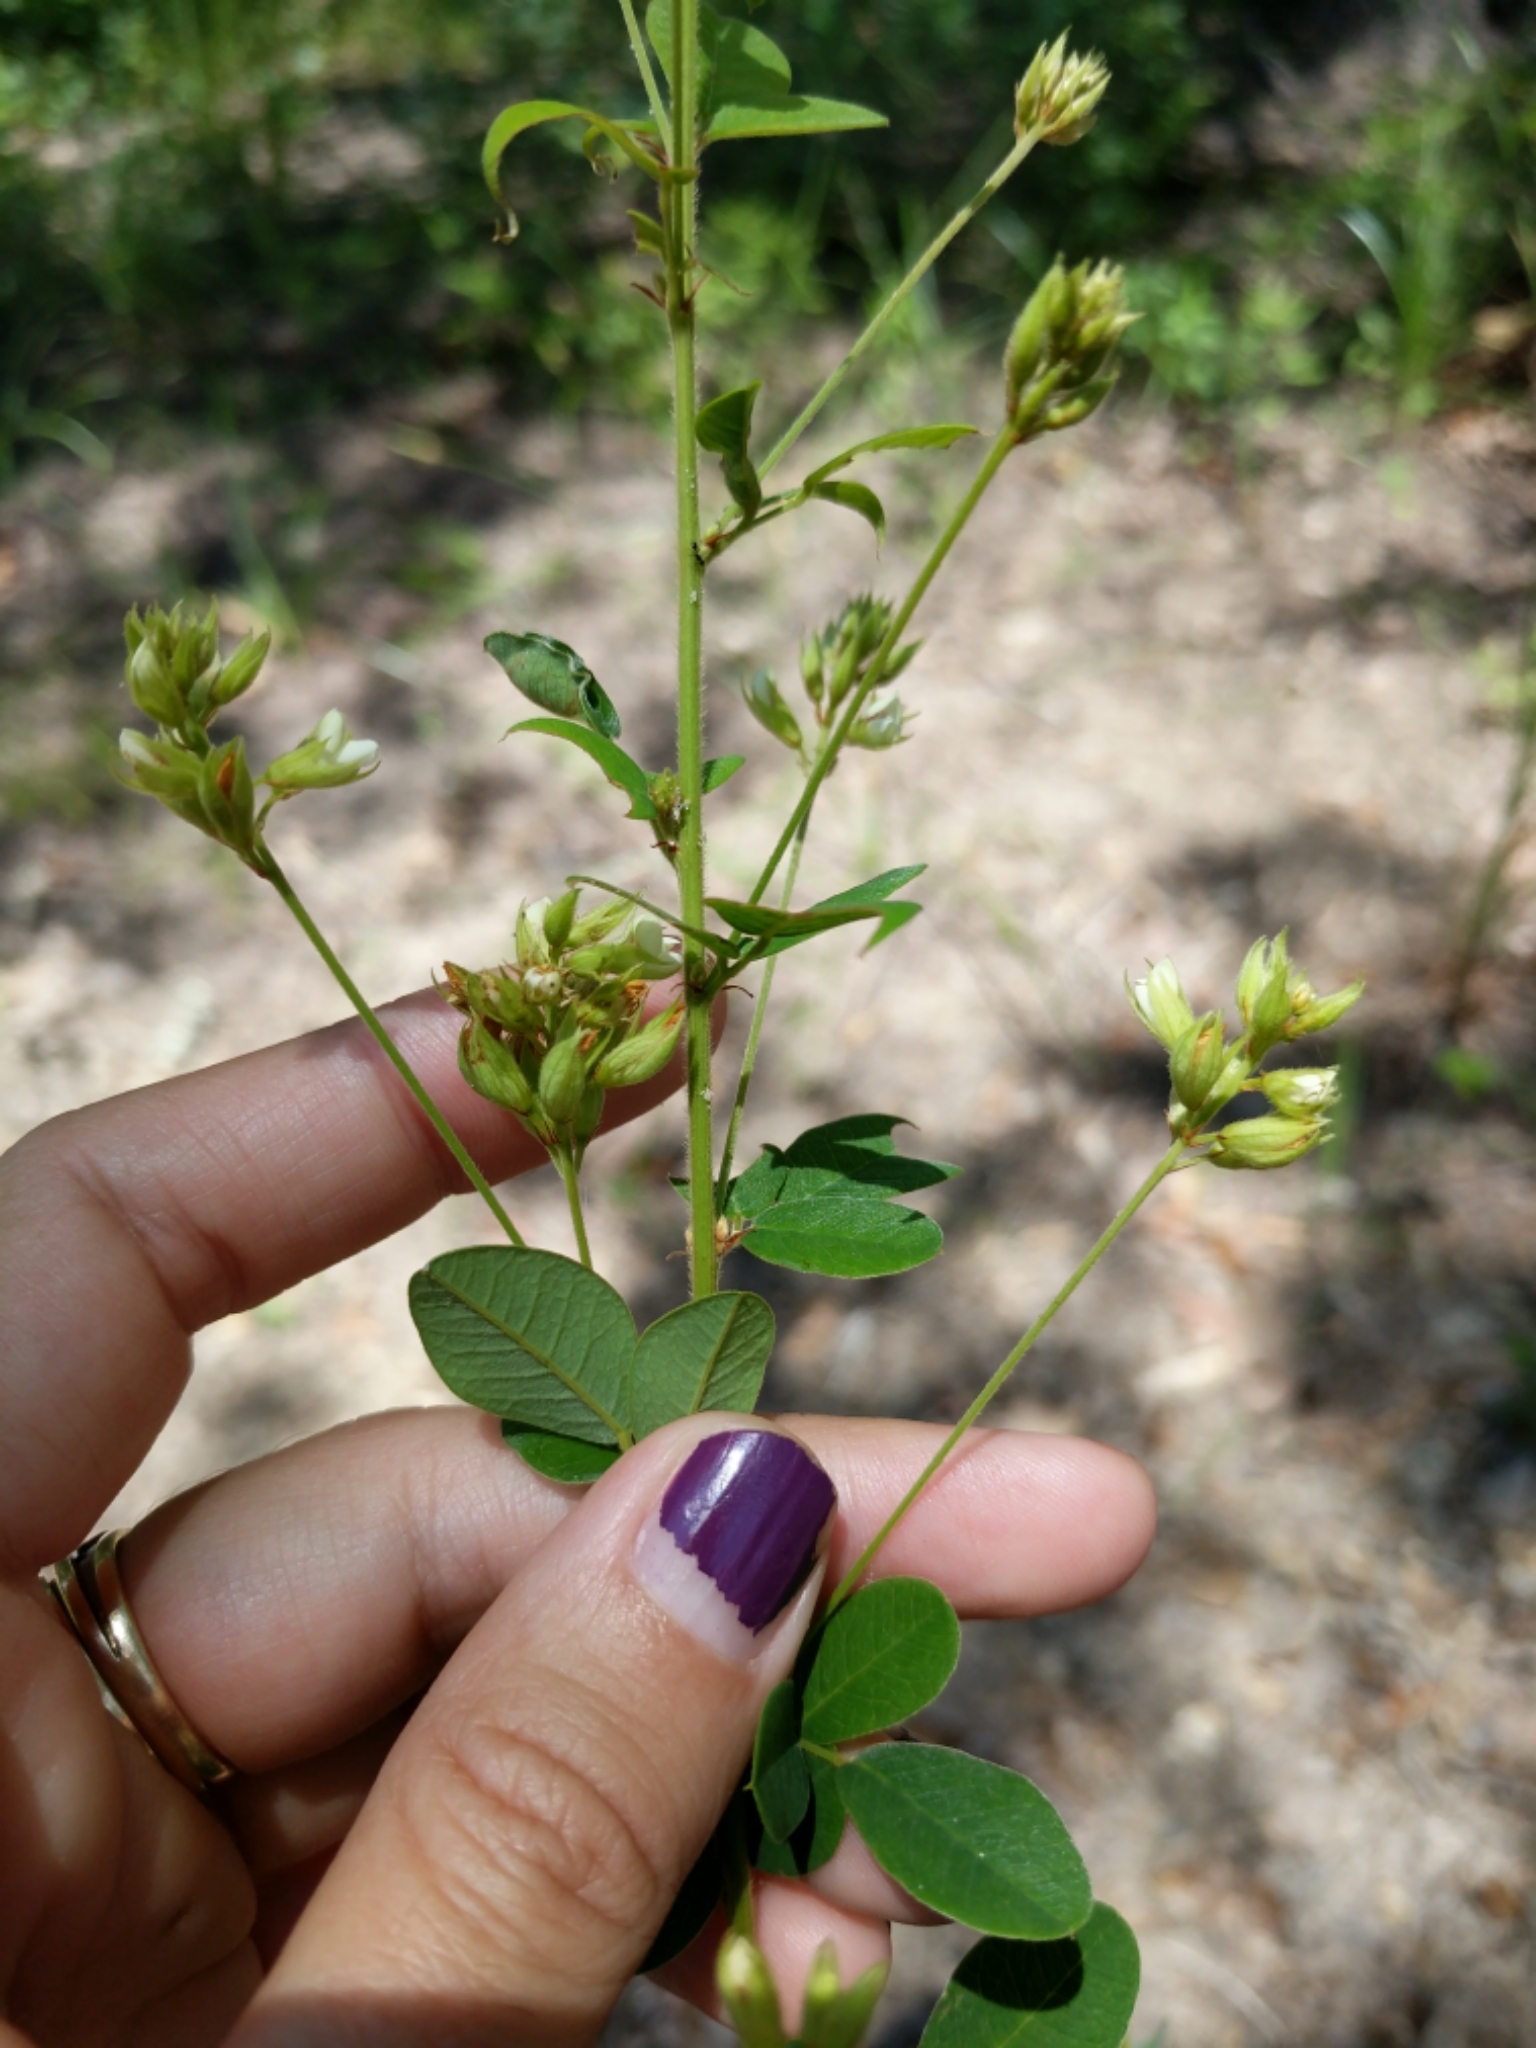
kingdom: Plantae
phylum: Tracheophyta
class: Magnoliopsida
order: Fabales
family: Fabaceae
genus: Lespedeza
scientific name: Lespedeza hirta
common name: Hairy lespedeza
